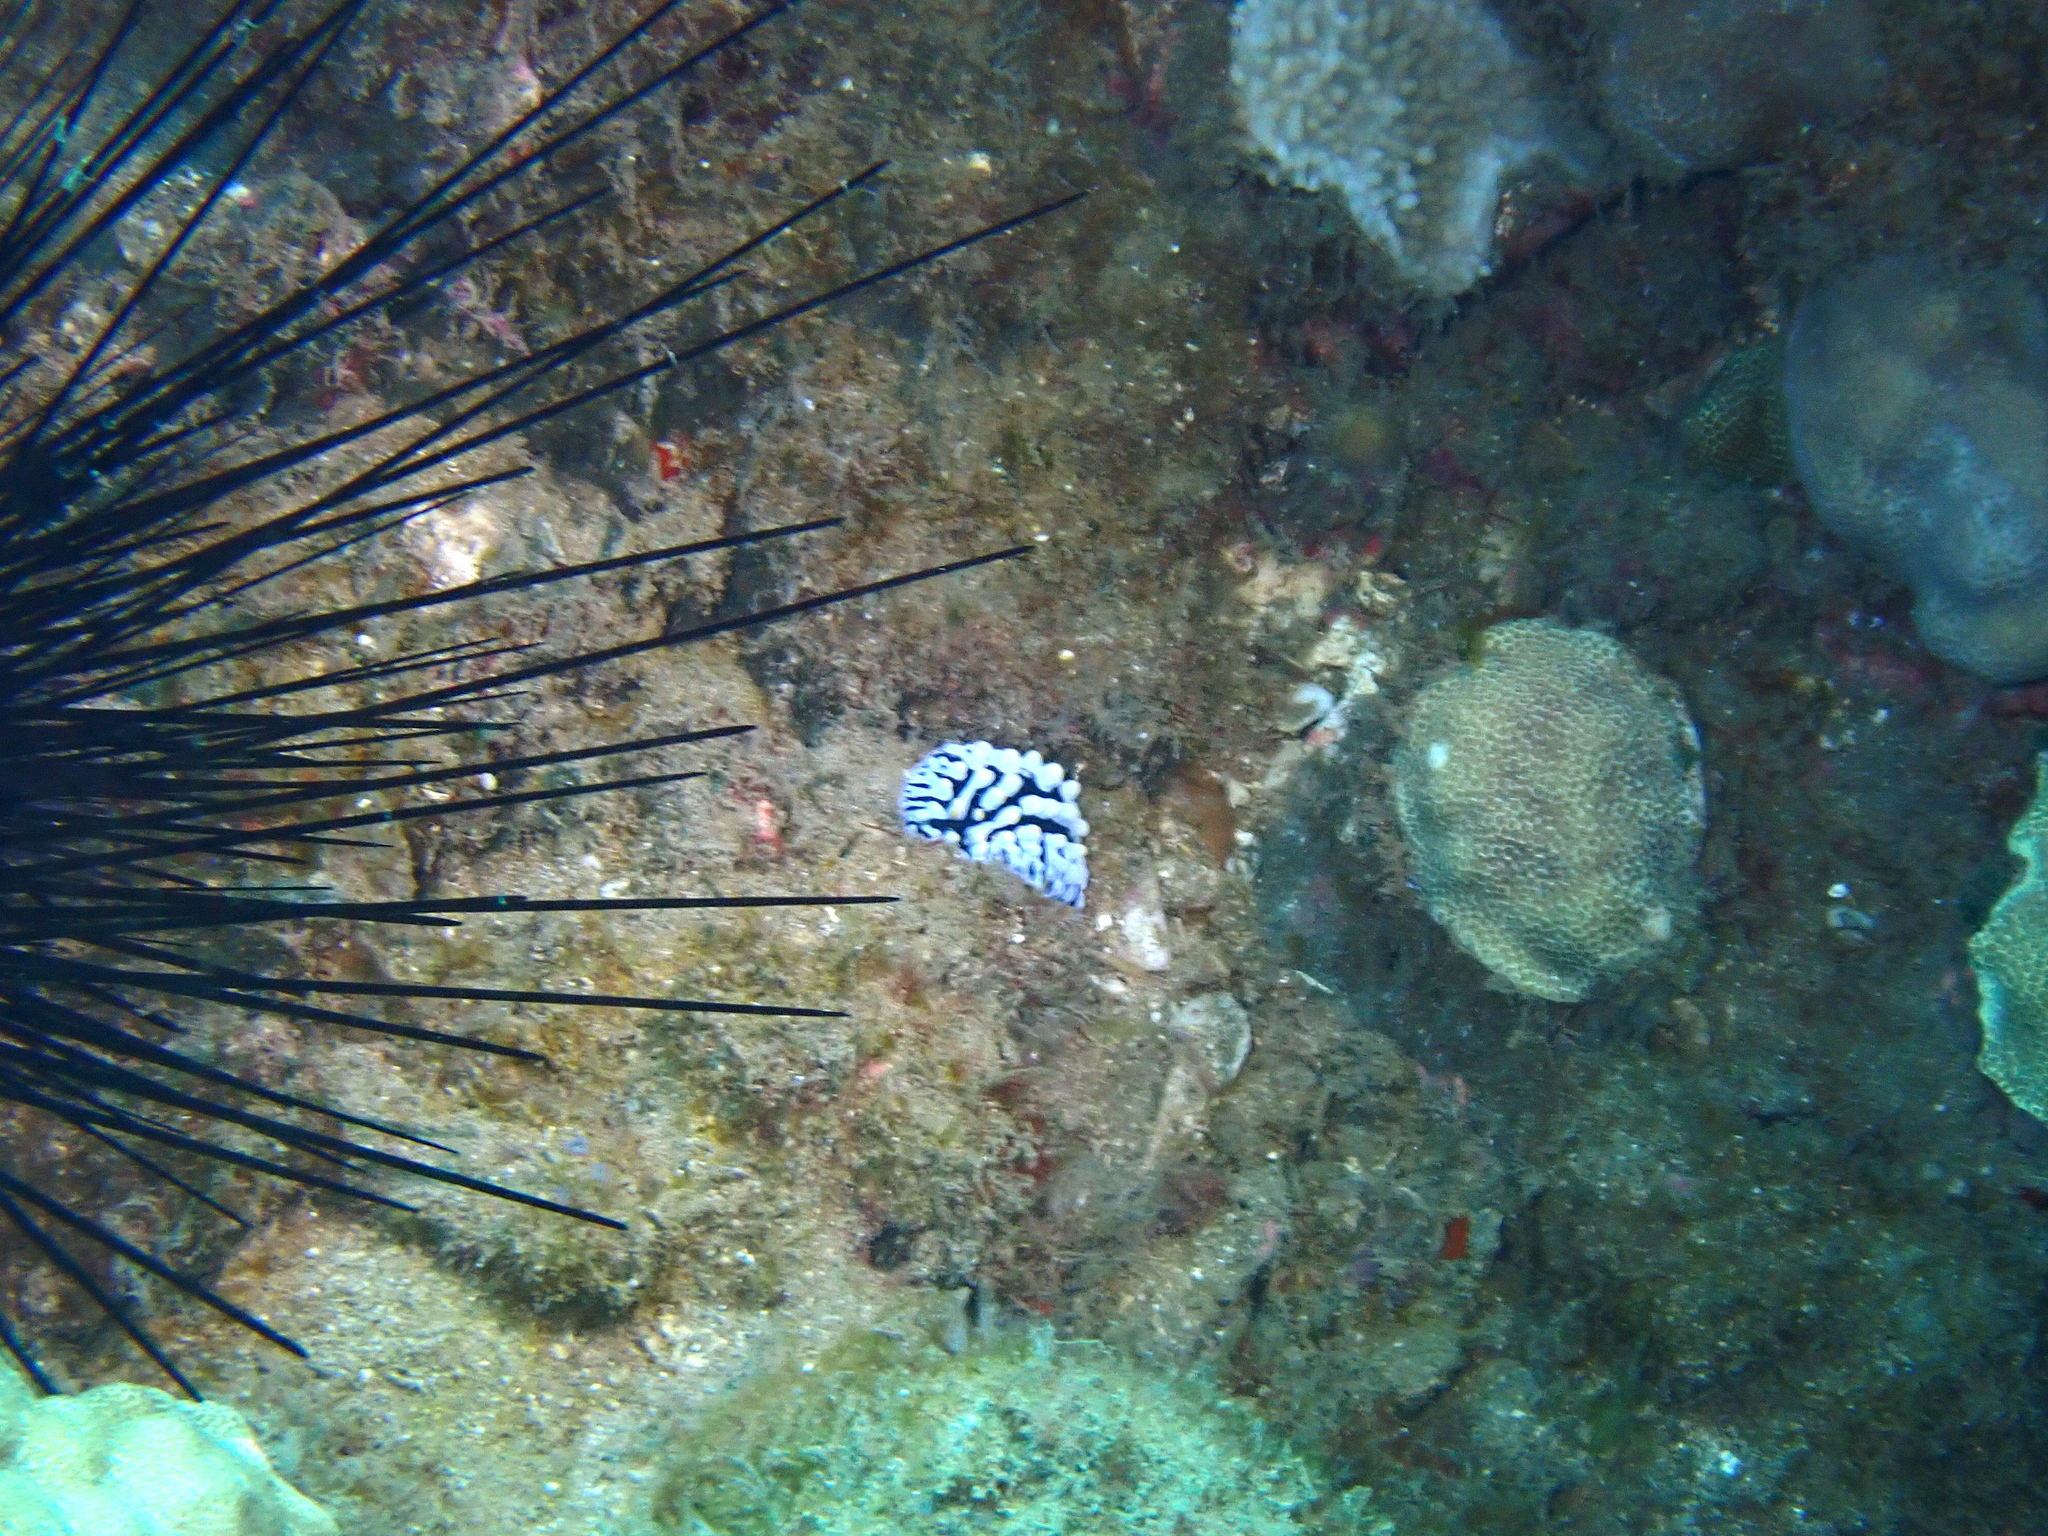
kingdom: Animalia
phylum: Mollusca
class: Gastropoda
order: Nudibranchia
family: Phyllidiidae
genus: Phyllidia
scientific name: Phyllidia varicosa
